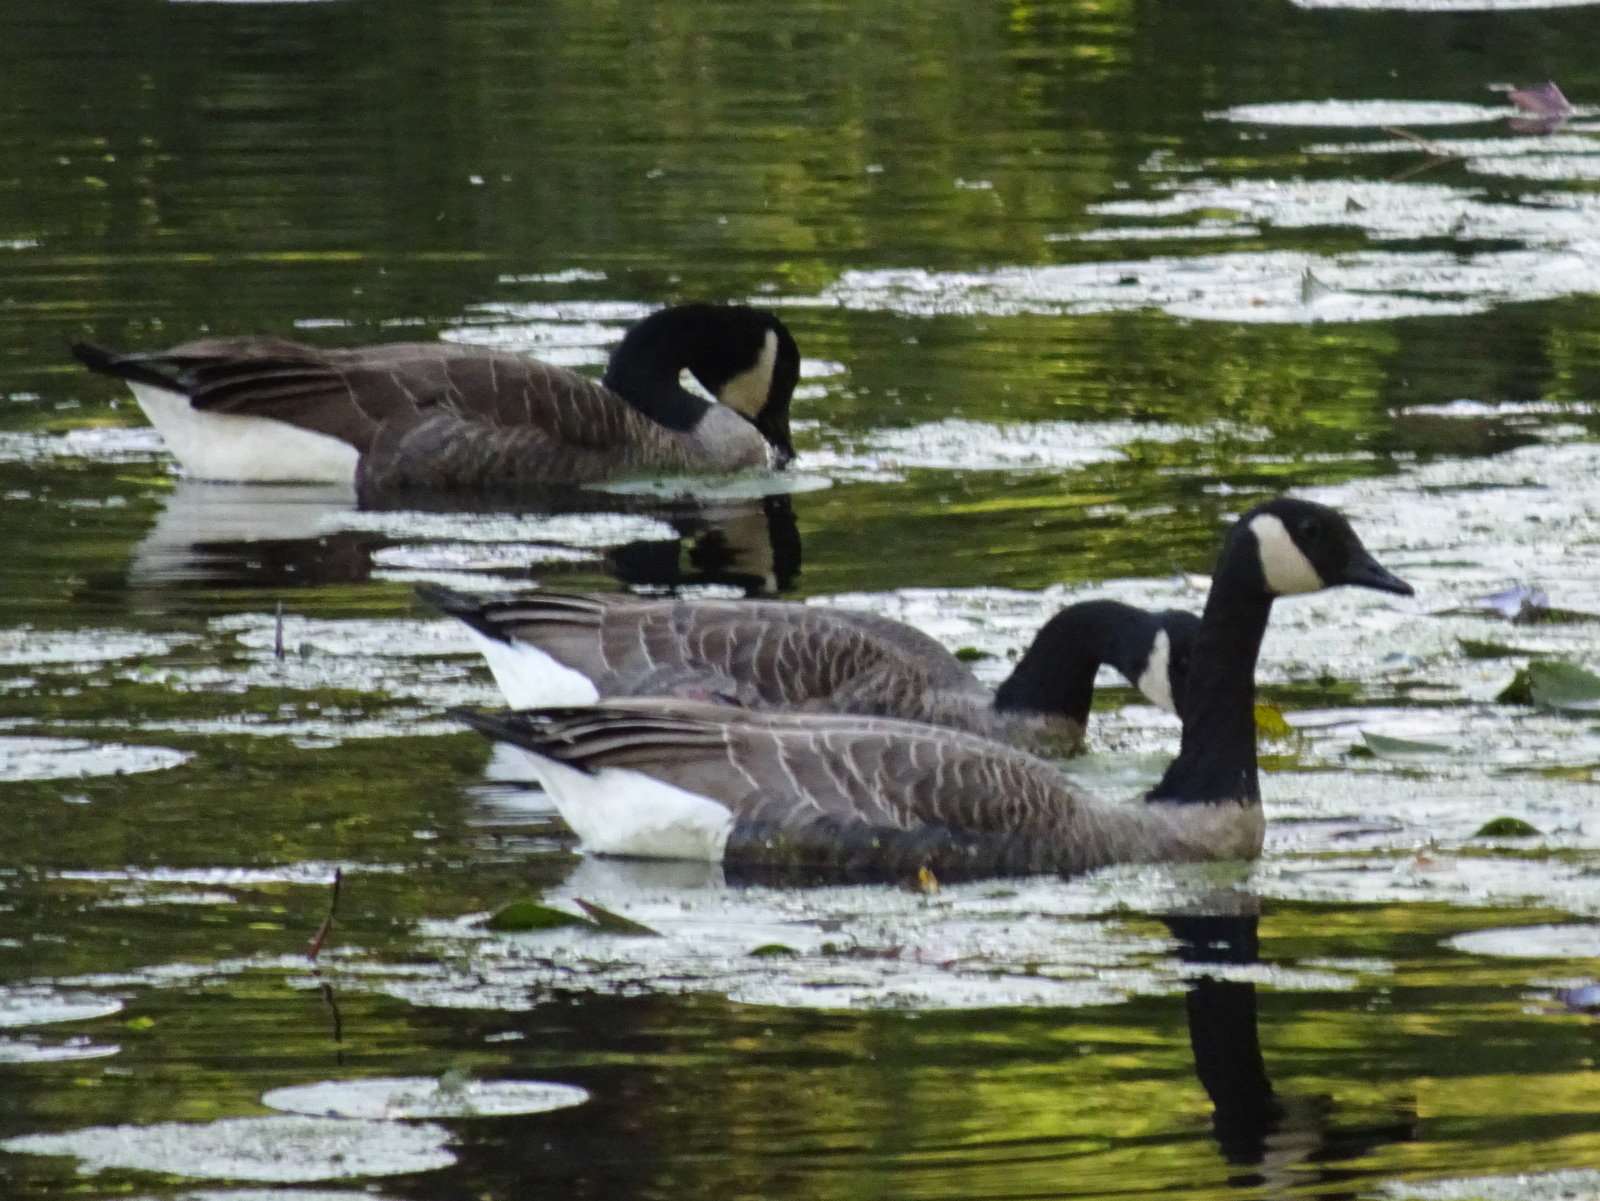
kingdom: Animalia
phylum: Chordata
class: Aves
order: Anseriformes
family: Anatidae
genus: Branta
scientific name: Branta canadensis
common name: Canada goose
